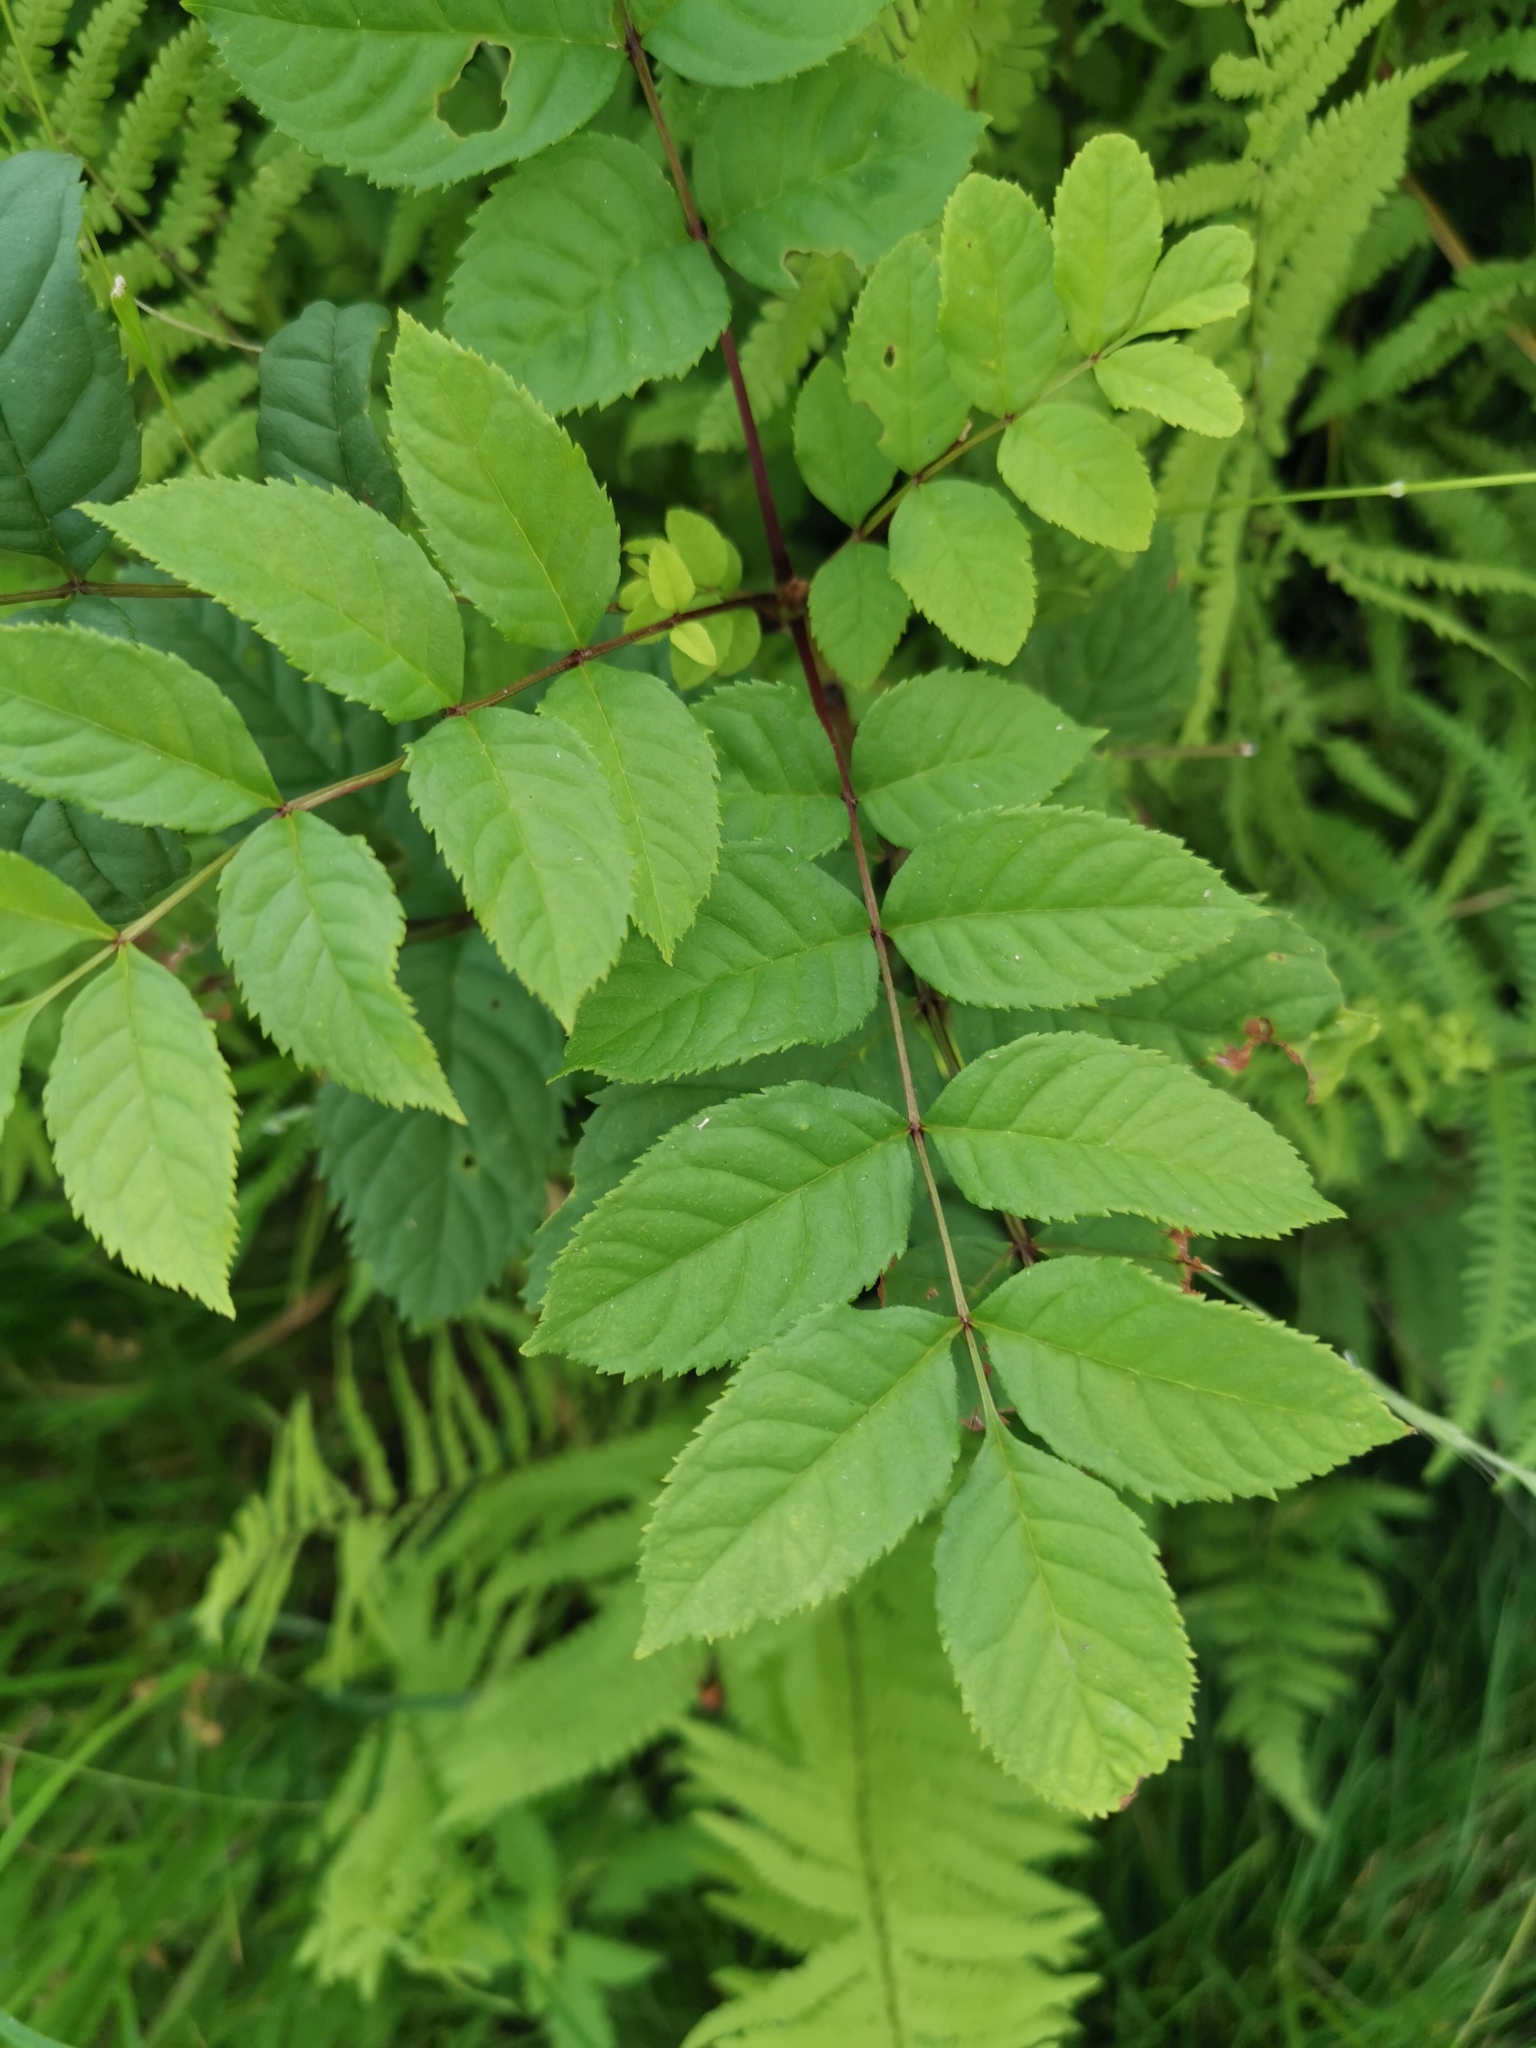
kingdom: Plantae
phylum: Tracheophyta
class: Magnoliopsida
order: Lamiales
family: Oleaceae
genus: Fraxinus
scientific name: Fraxinus excelsior
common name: European ash
